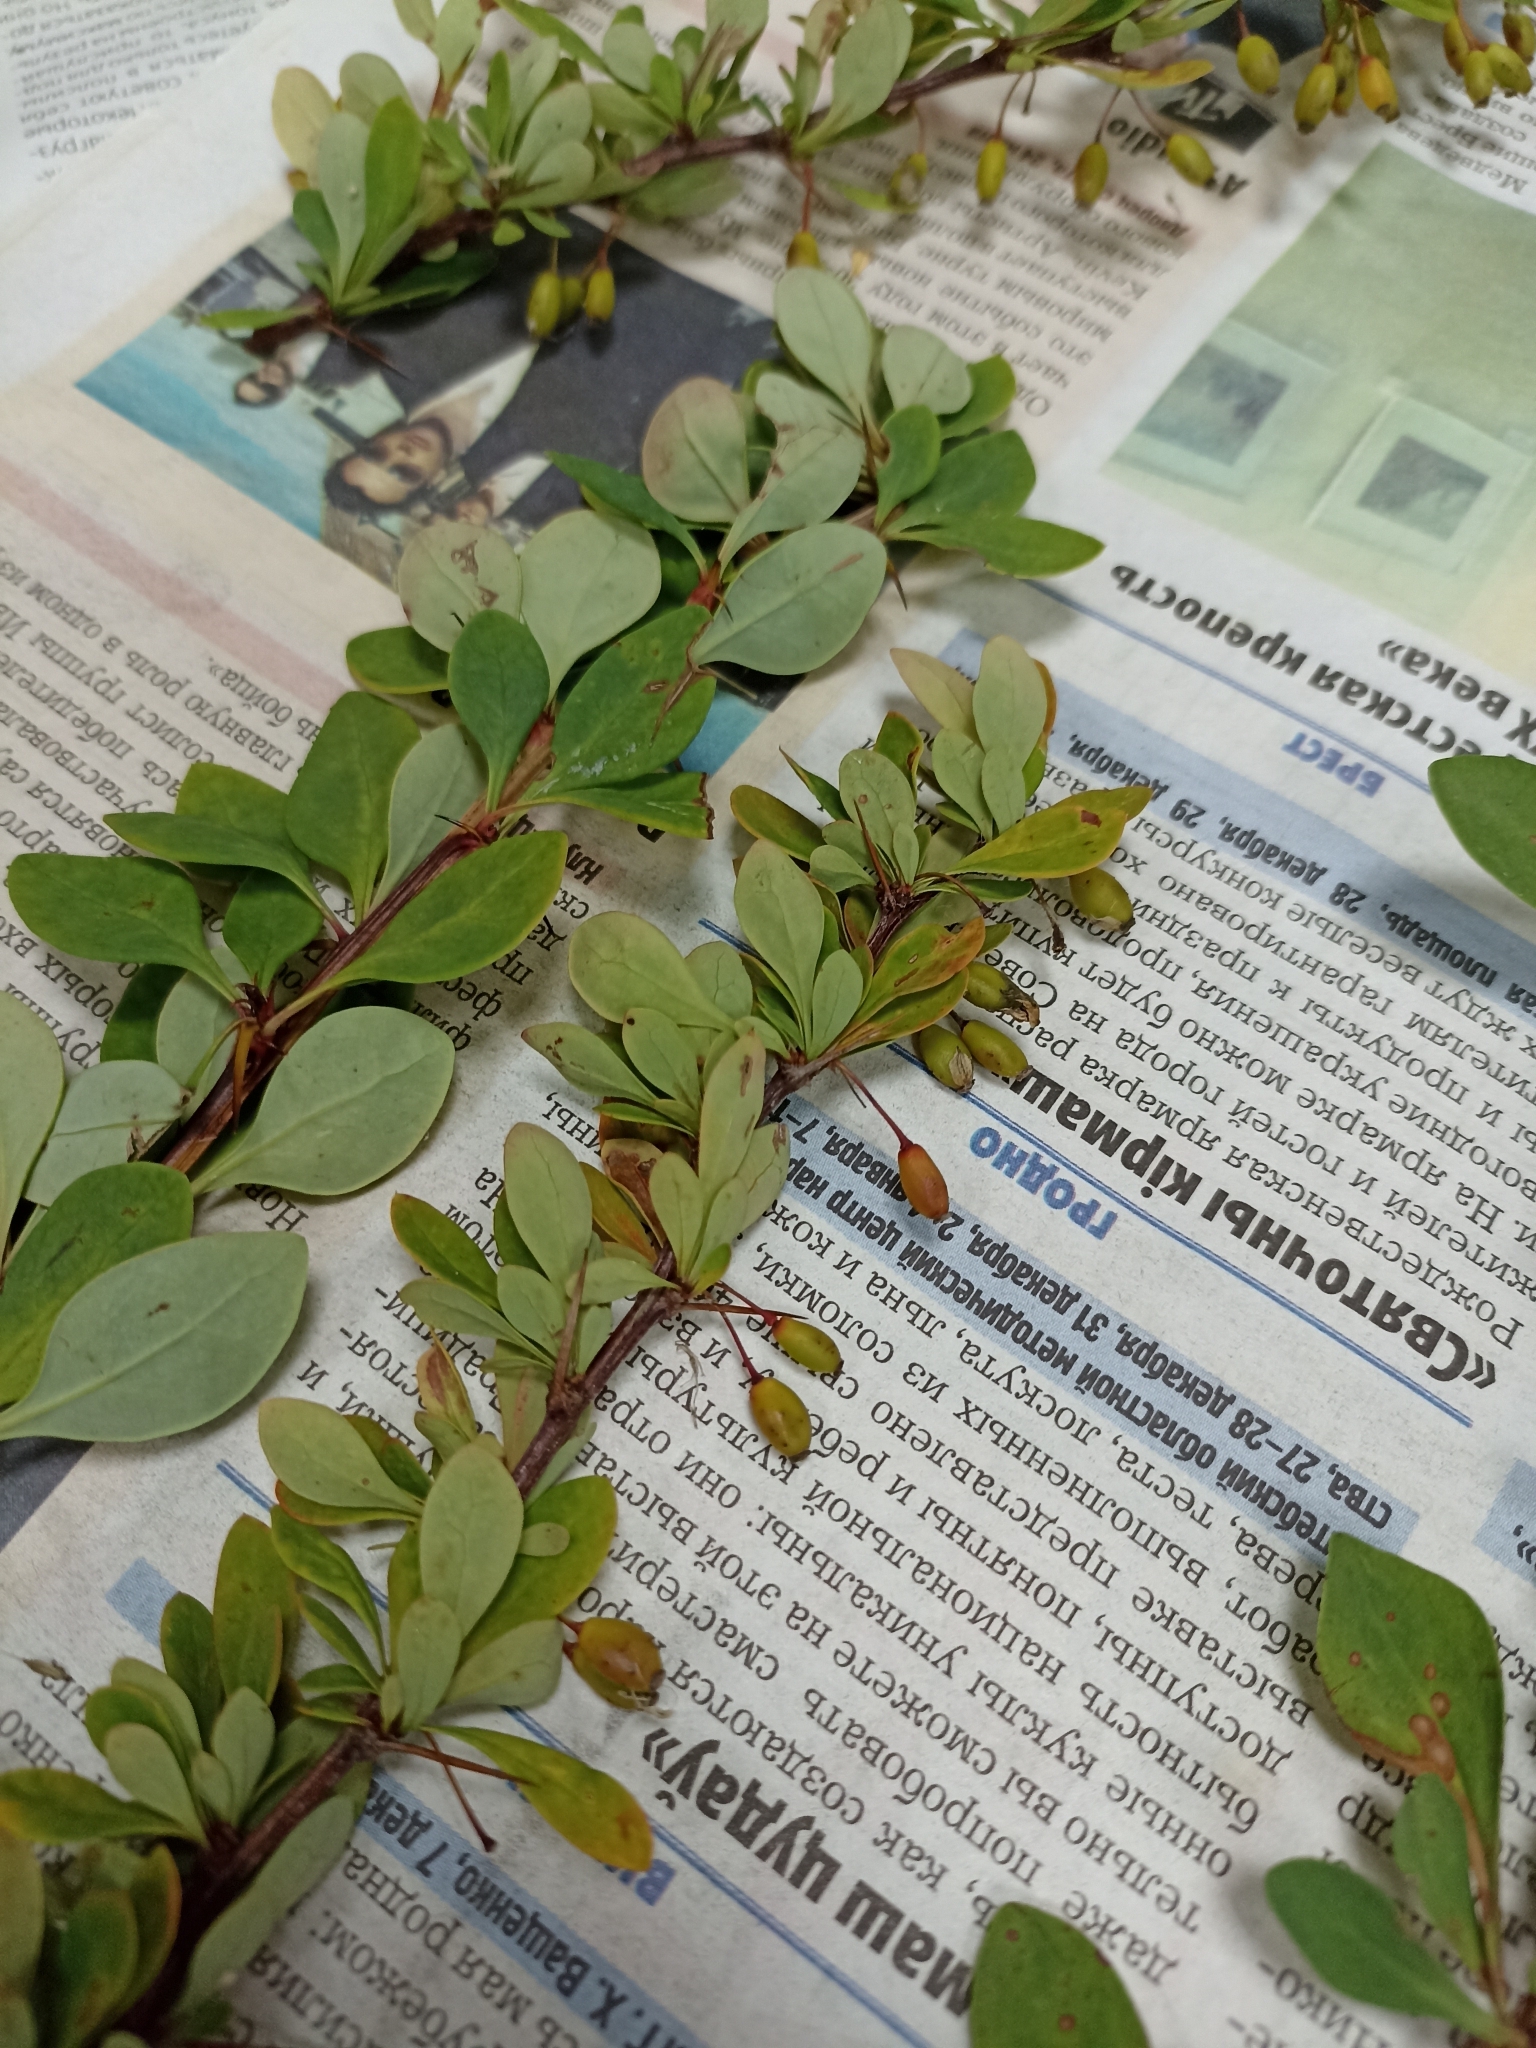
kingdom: Plantae
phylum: Tracheophyta
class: Magnoliopsida
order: Ranunculales
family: Berberidaceae
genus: Berberis
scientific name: Berberis thunbergii
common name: Japanese barberry
